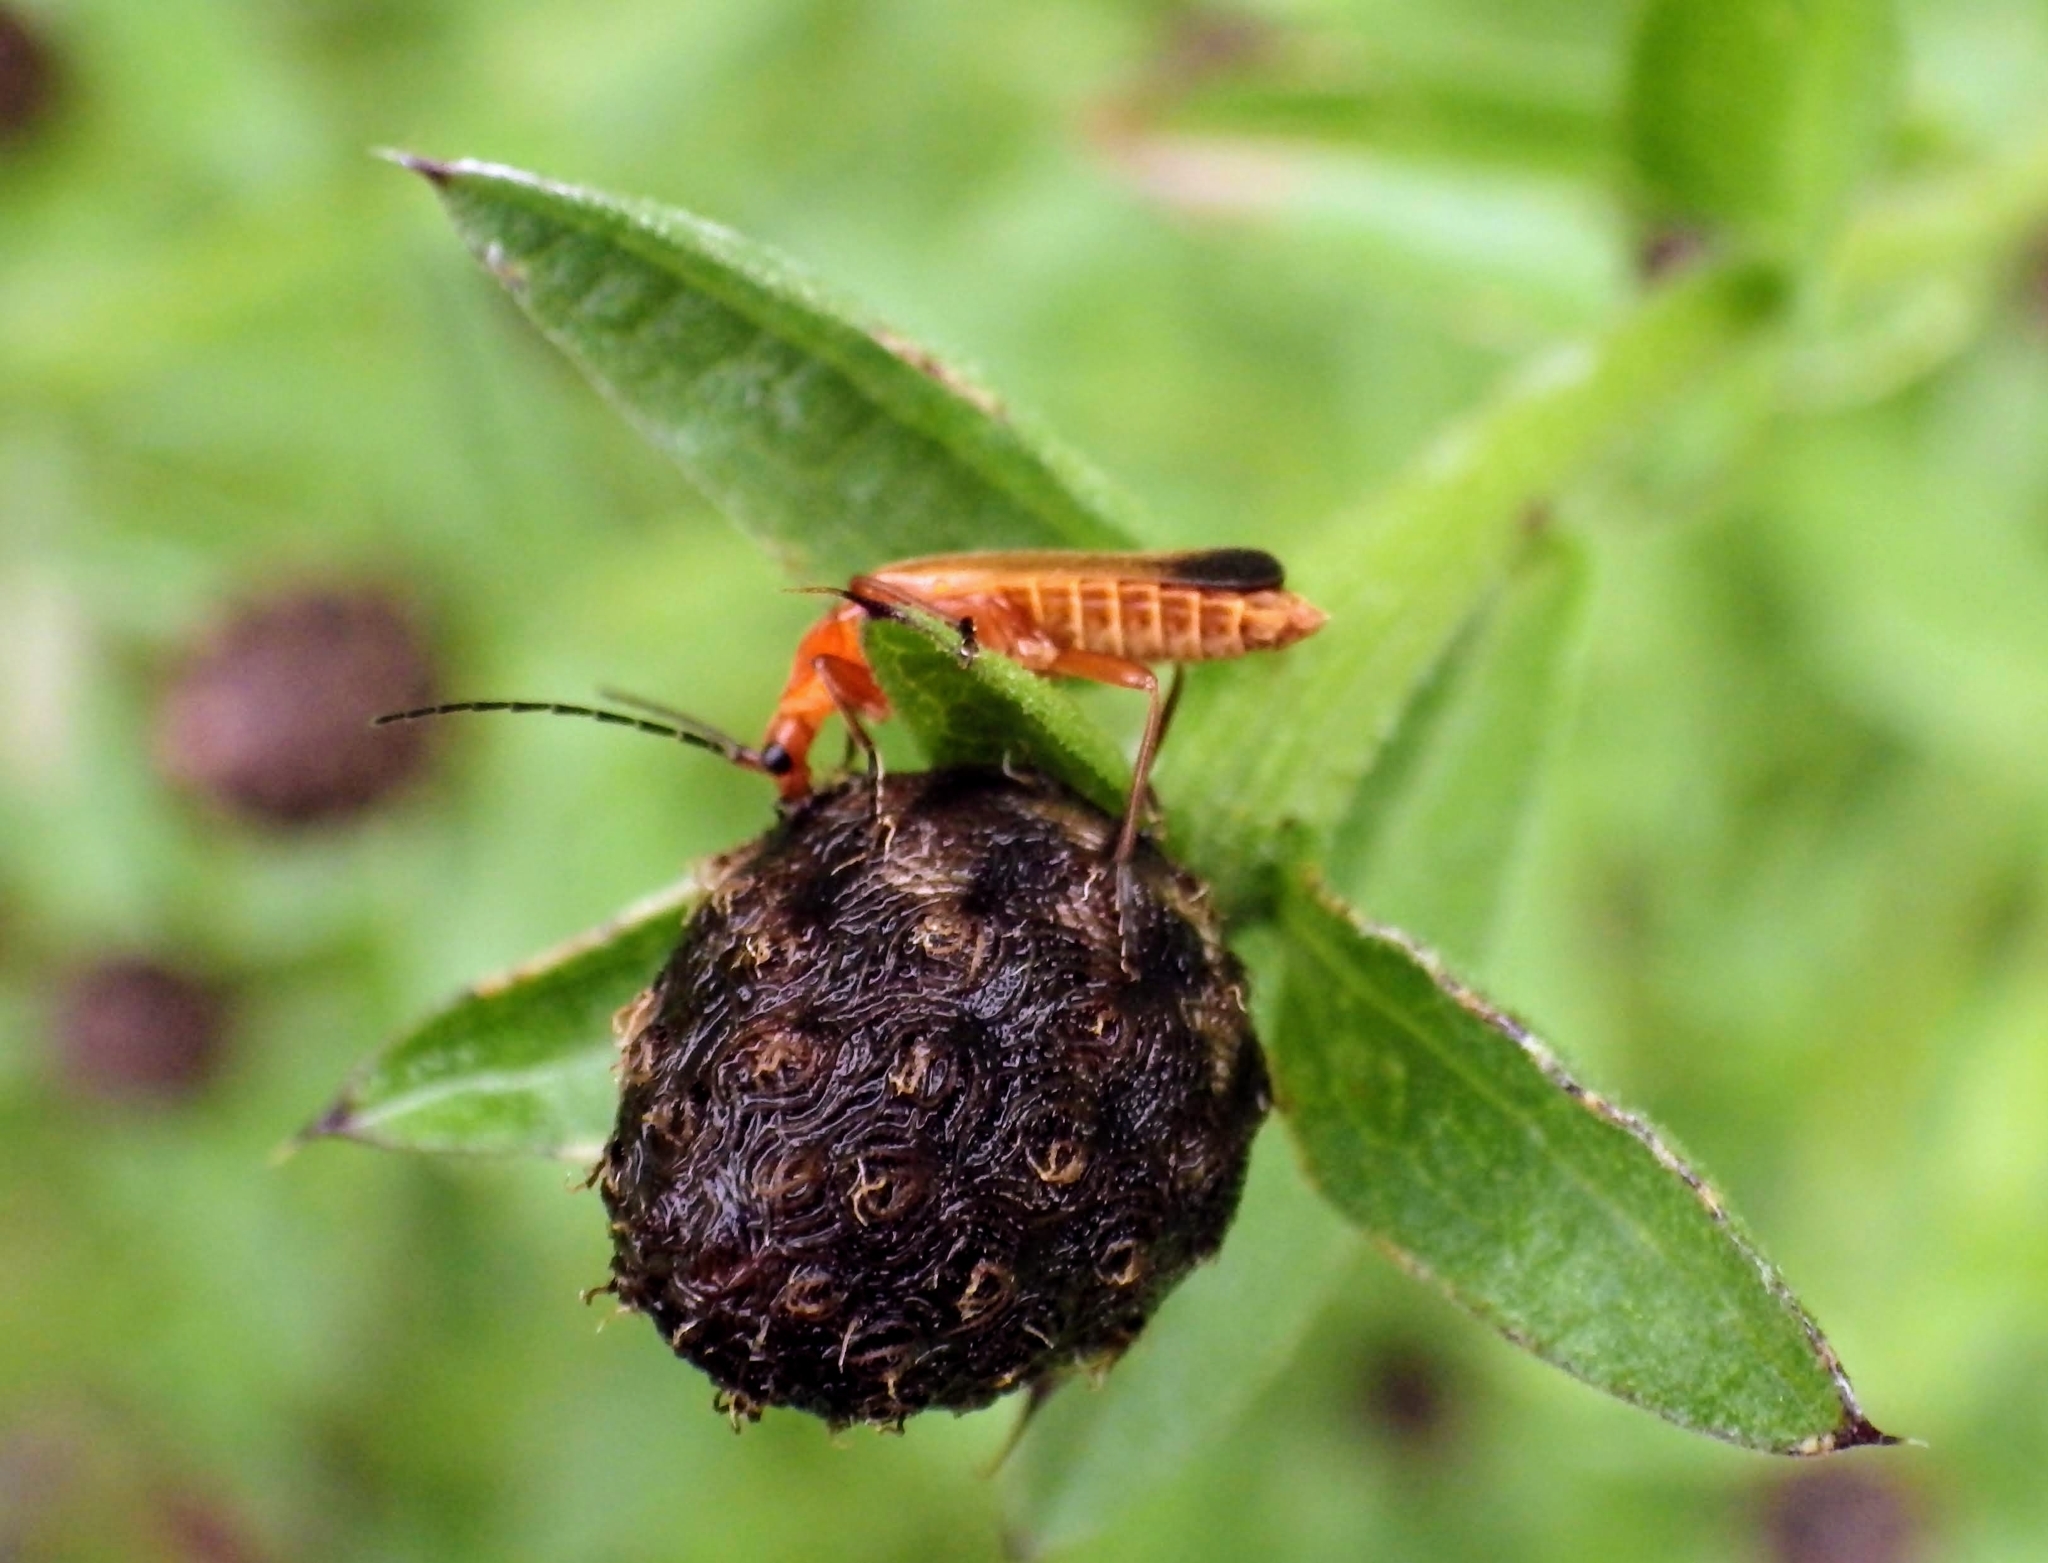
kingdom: Animalia
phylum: Arthropoda
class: Insecta
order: Coleoptera
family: Cantharidae
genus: Rhagonycha
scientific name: Rhagonycha fulva
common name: Common red soldier beetle
